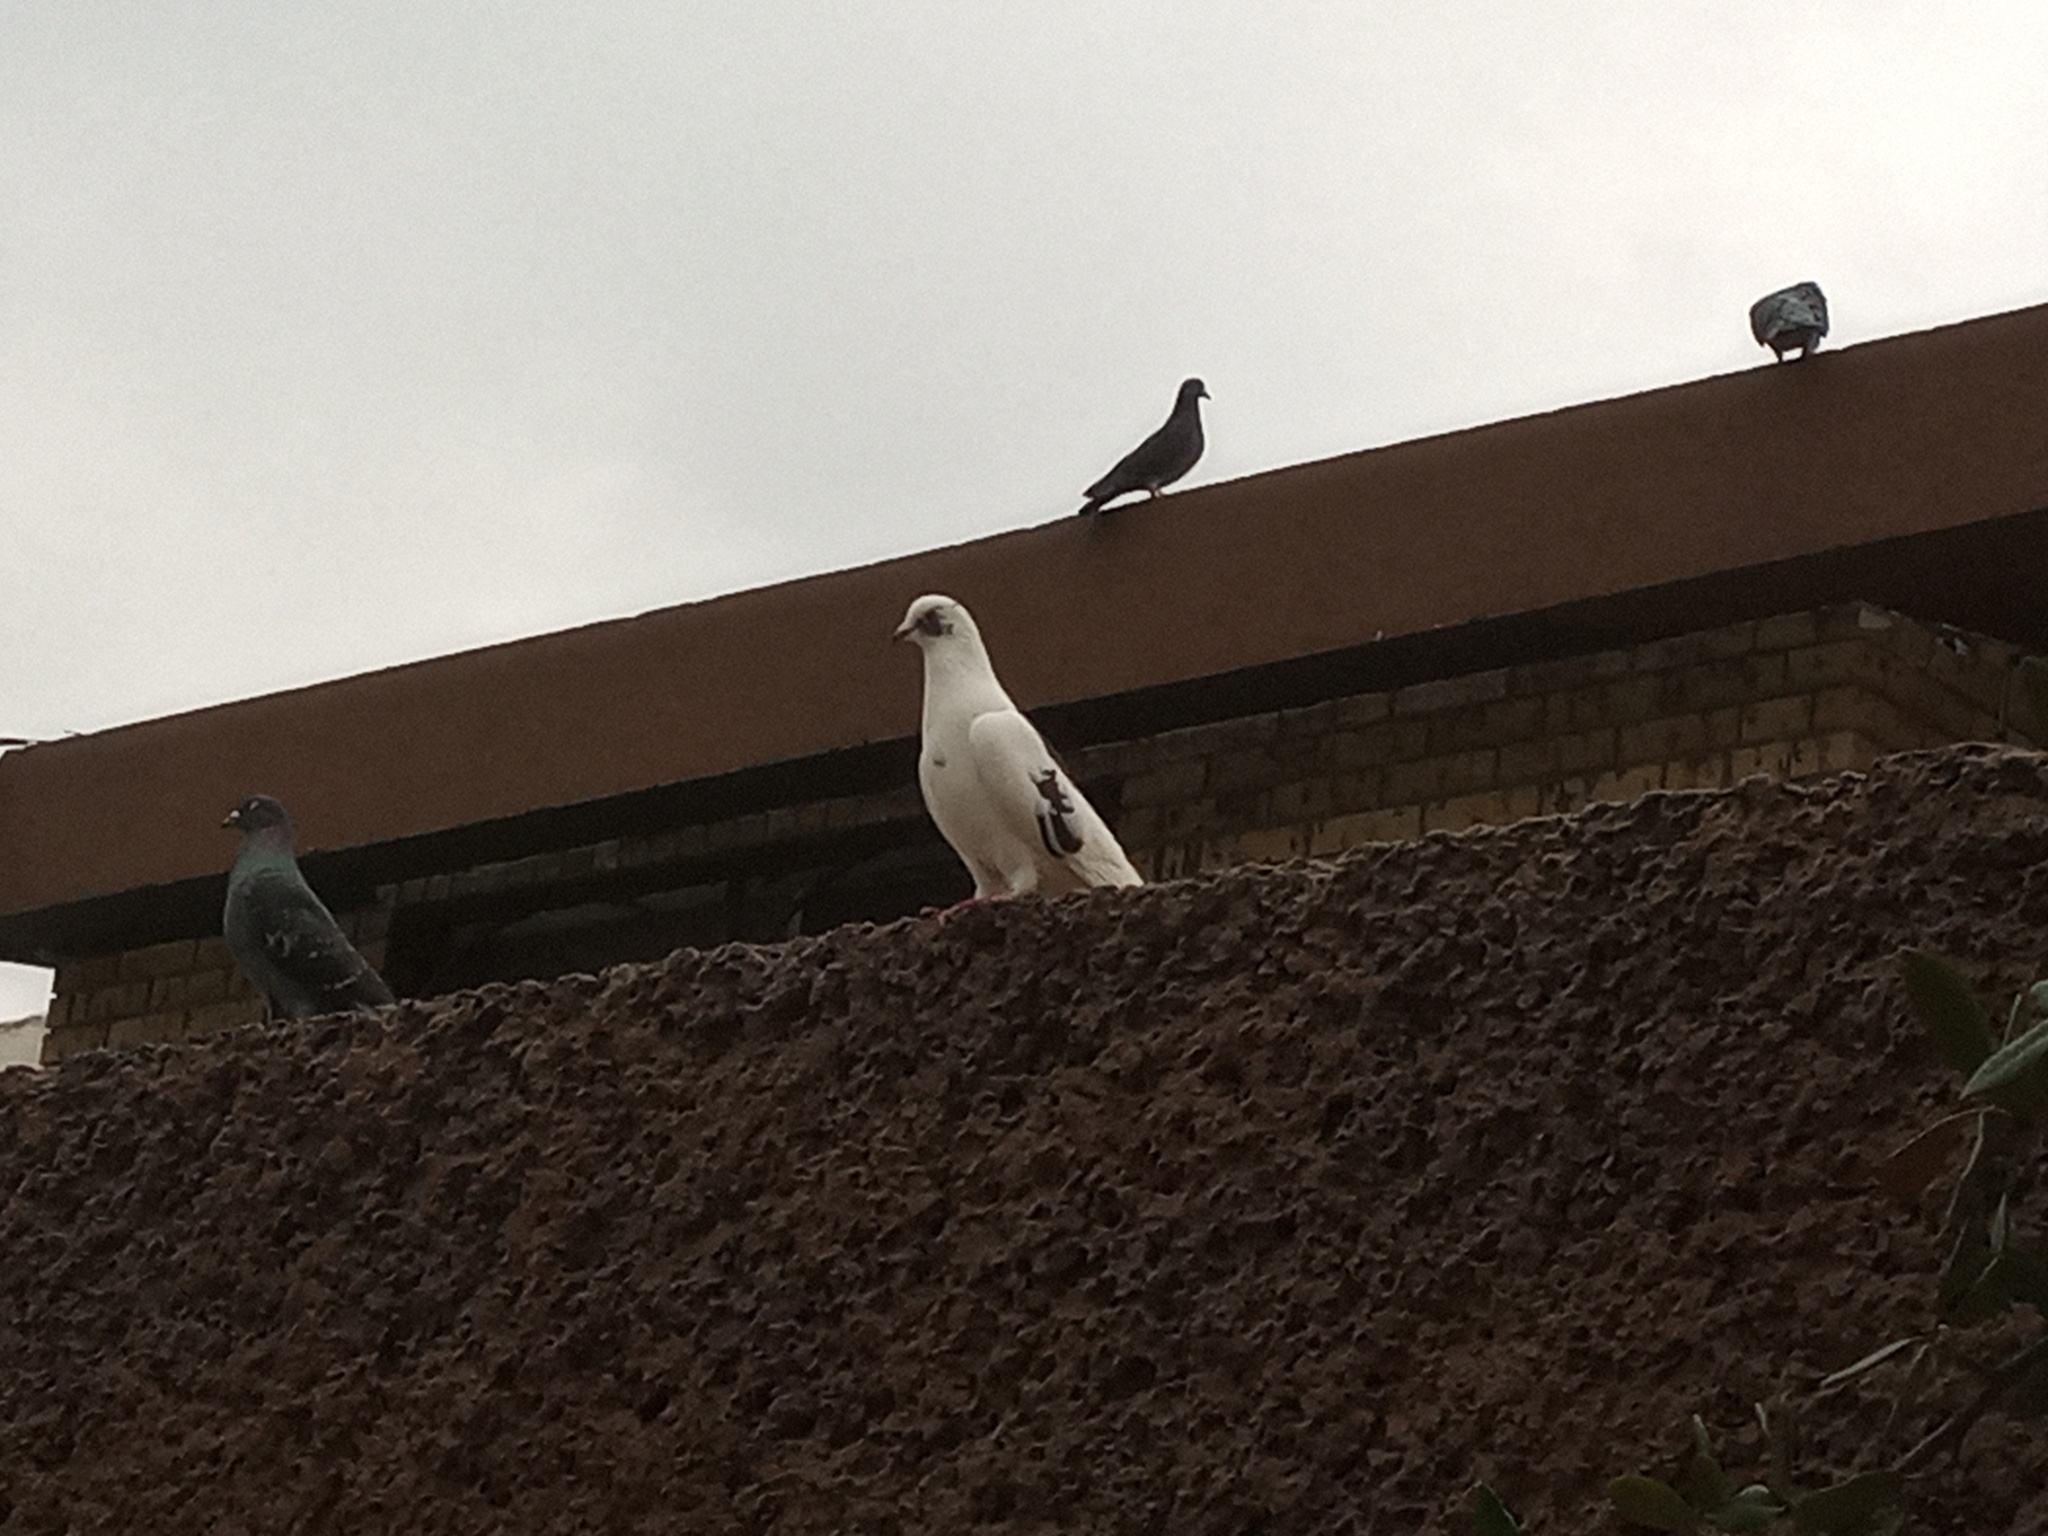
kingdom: Animalia
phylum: Chordata
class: Aves
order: Columbiformes
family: Columbidae
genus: Columba
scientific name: Columba livia
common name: Rock pigeon
